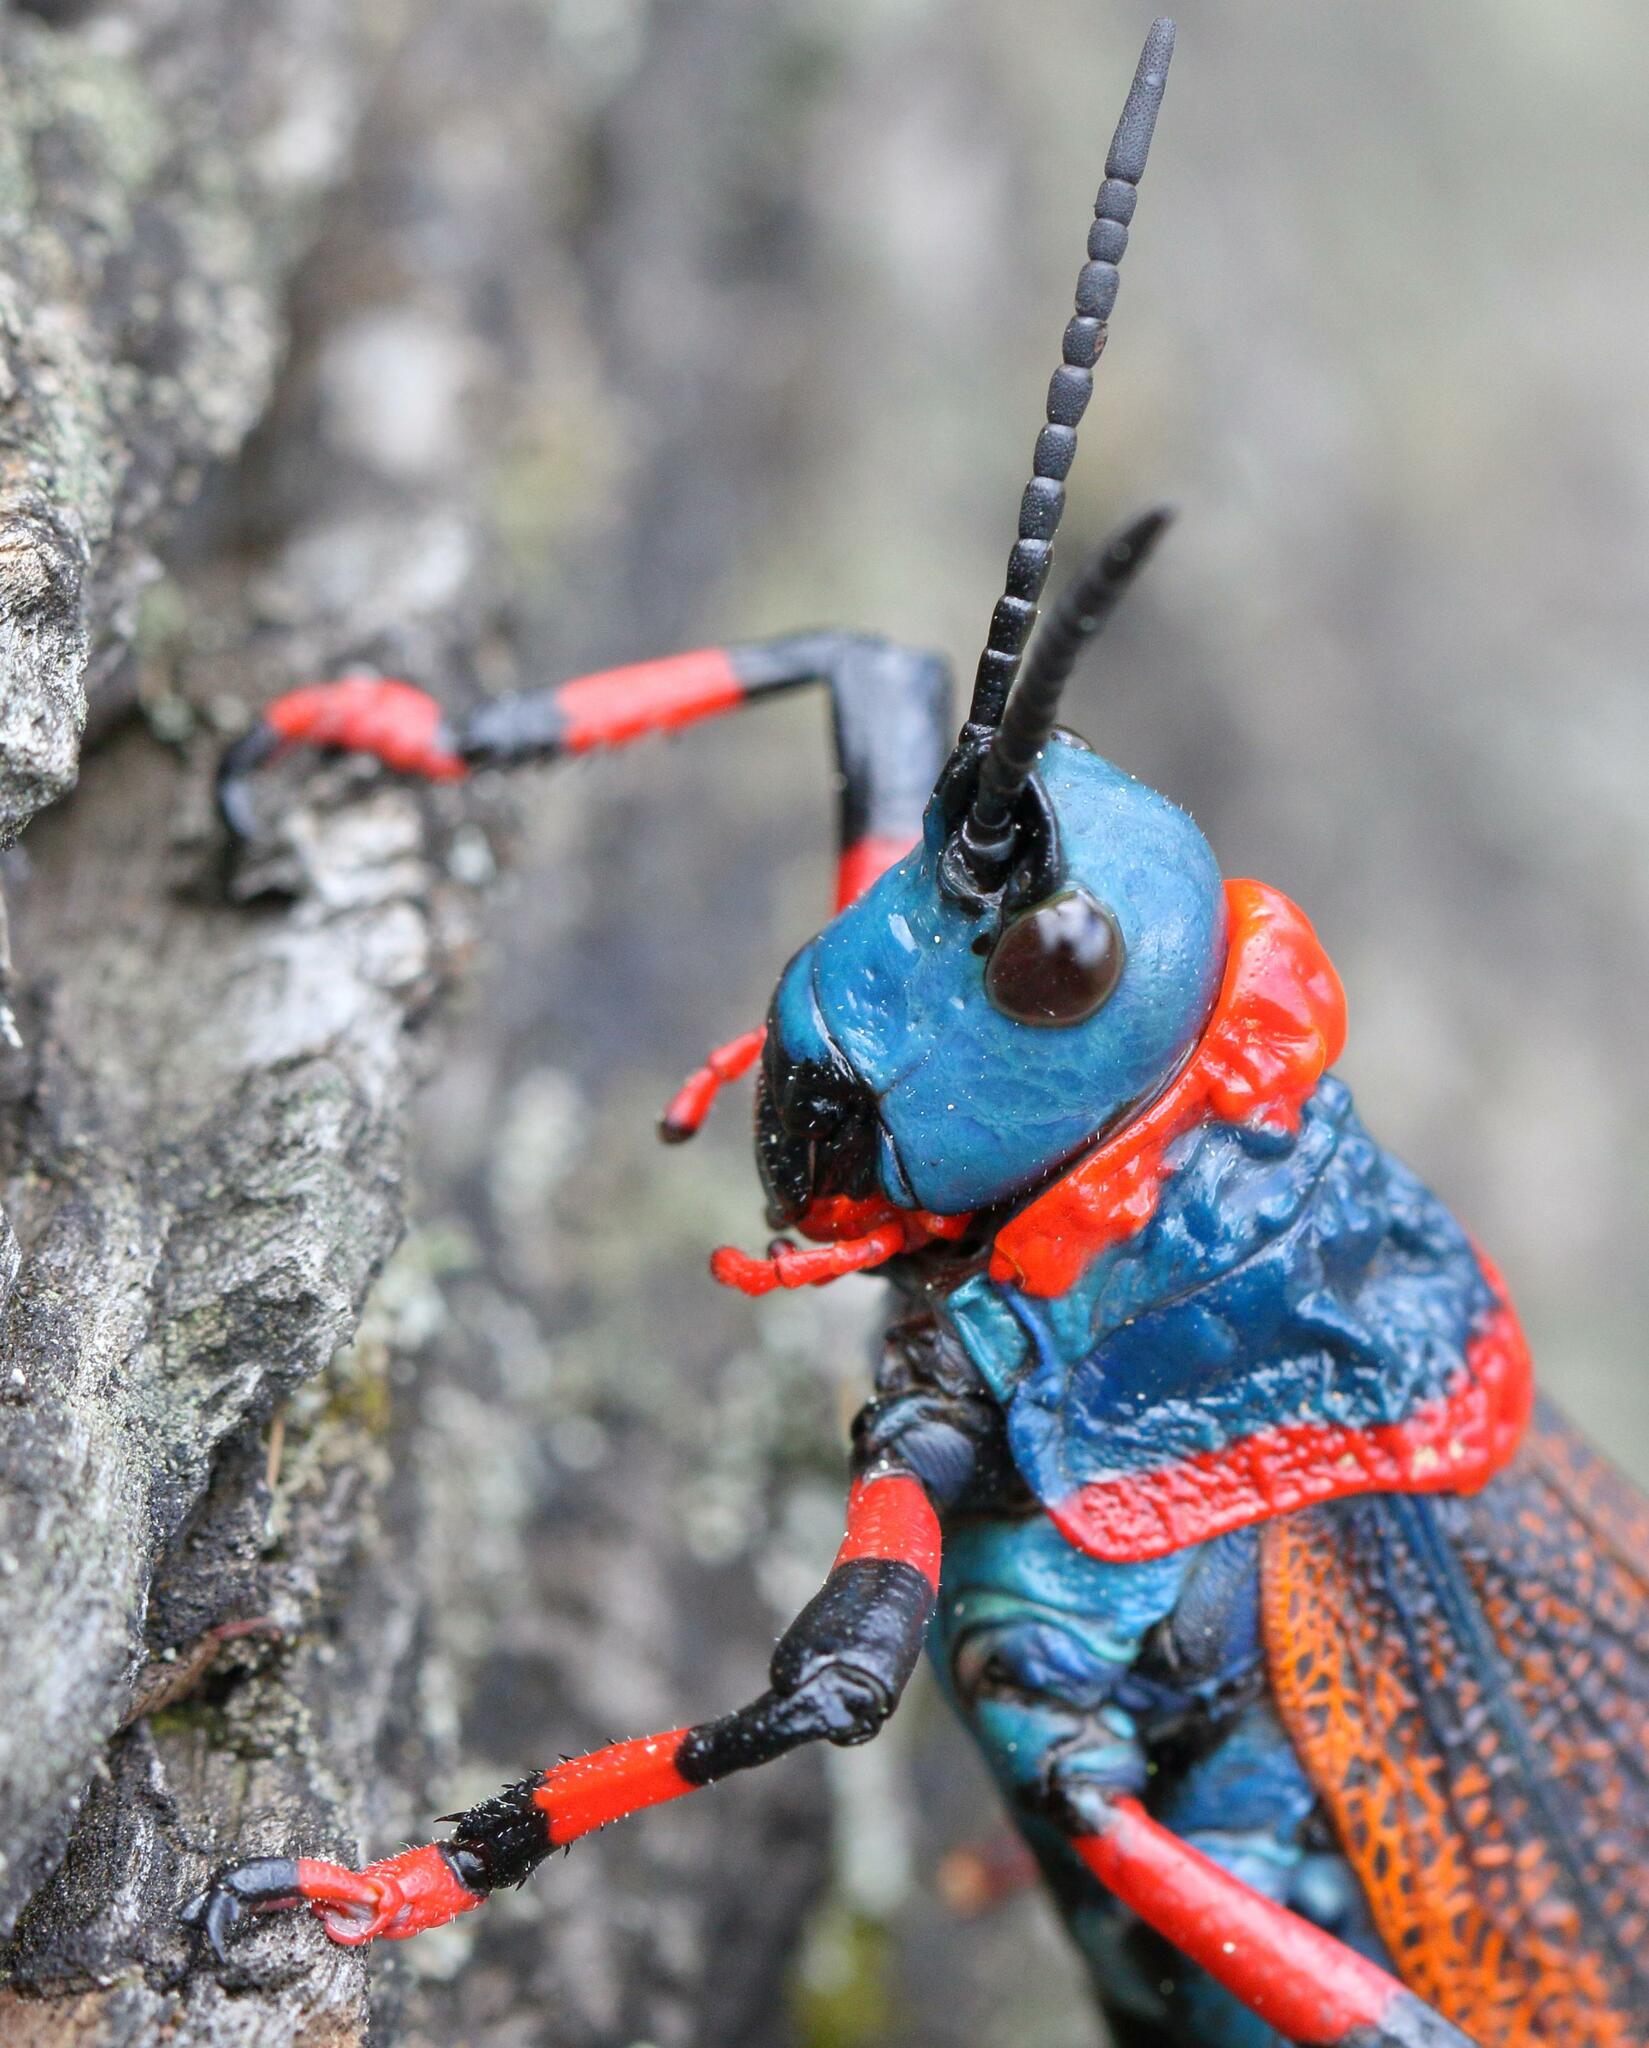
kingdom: Animalia
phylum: Arthropoda
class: Insecta
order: Orthoptera
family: Pyrgomorphidae
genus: Dictyophorus
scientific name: Dictyophorus spumans
